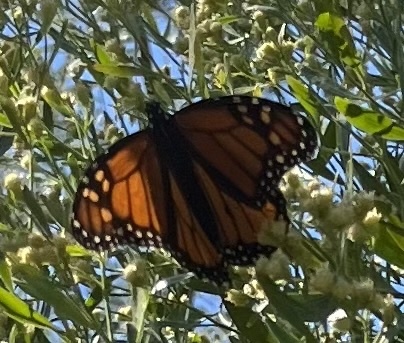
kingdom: Animalia
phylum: Arthropoda
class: Insecta
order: Lepidoptera
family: Nymphalidae
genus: Danaus
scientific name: Danaus plexippus
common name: Monarch
